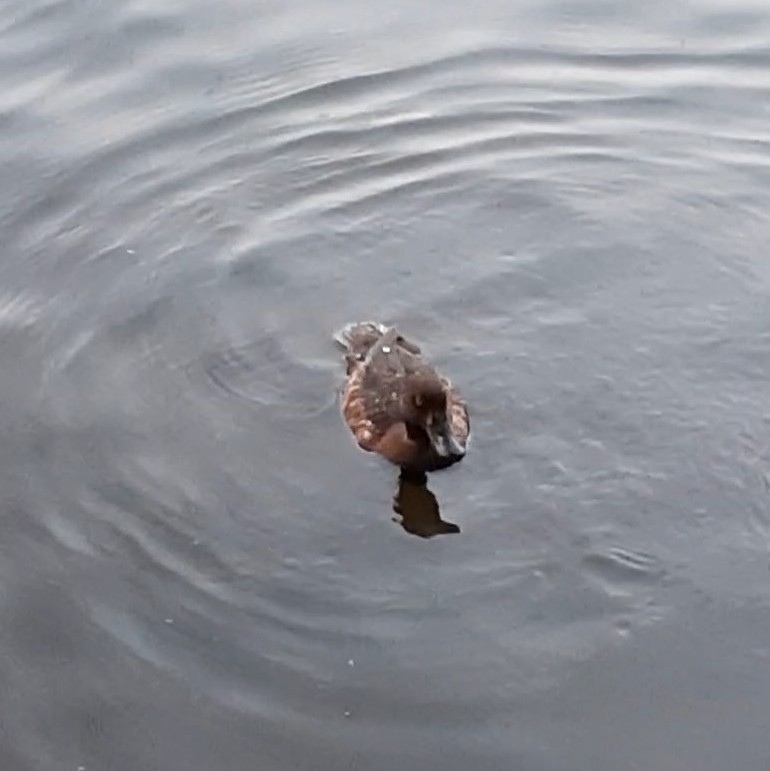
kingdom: Animalia
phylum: Chordata
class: Aves
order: Anseriformes
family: Anatidae
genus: Aythya
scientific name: Aythya fuligula
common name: Tufted duck
